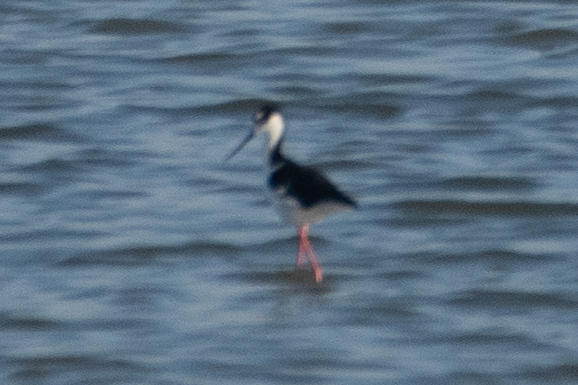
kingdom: Animalia
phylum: Chordata
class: Aves
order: Charadriiformes
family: Recurvirostridae
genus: Himantopus
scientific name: Himantopus mexicanus
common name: Black-necked stilt
